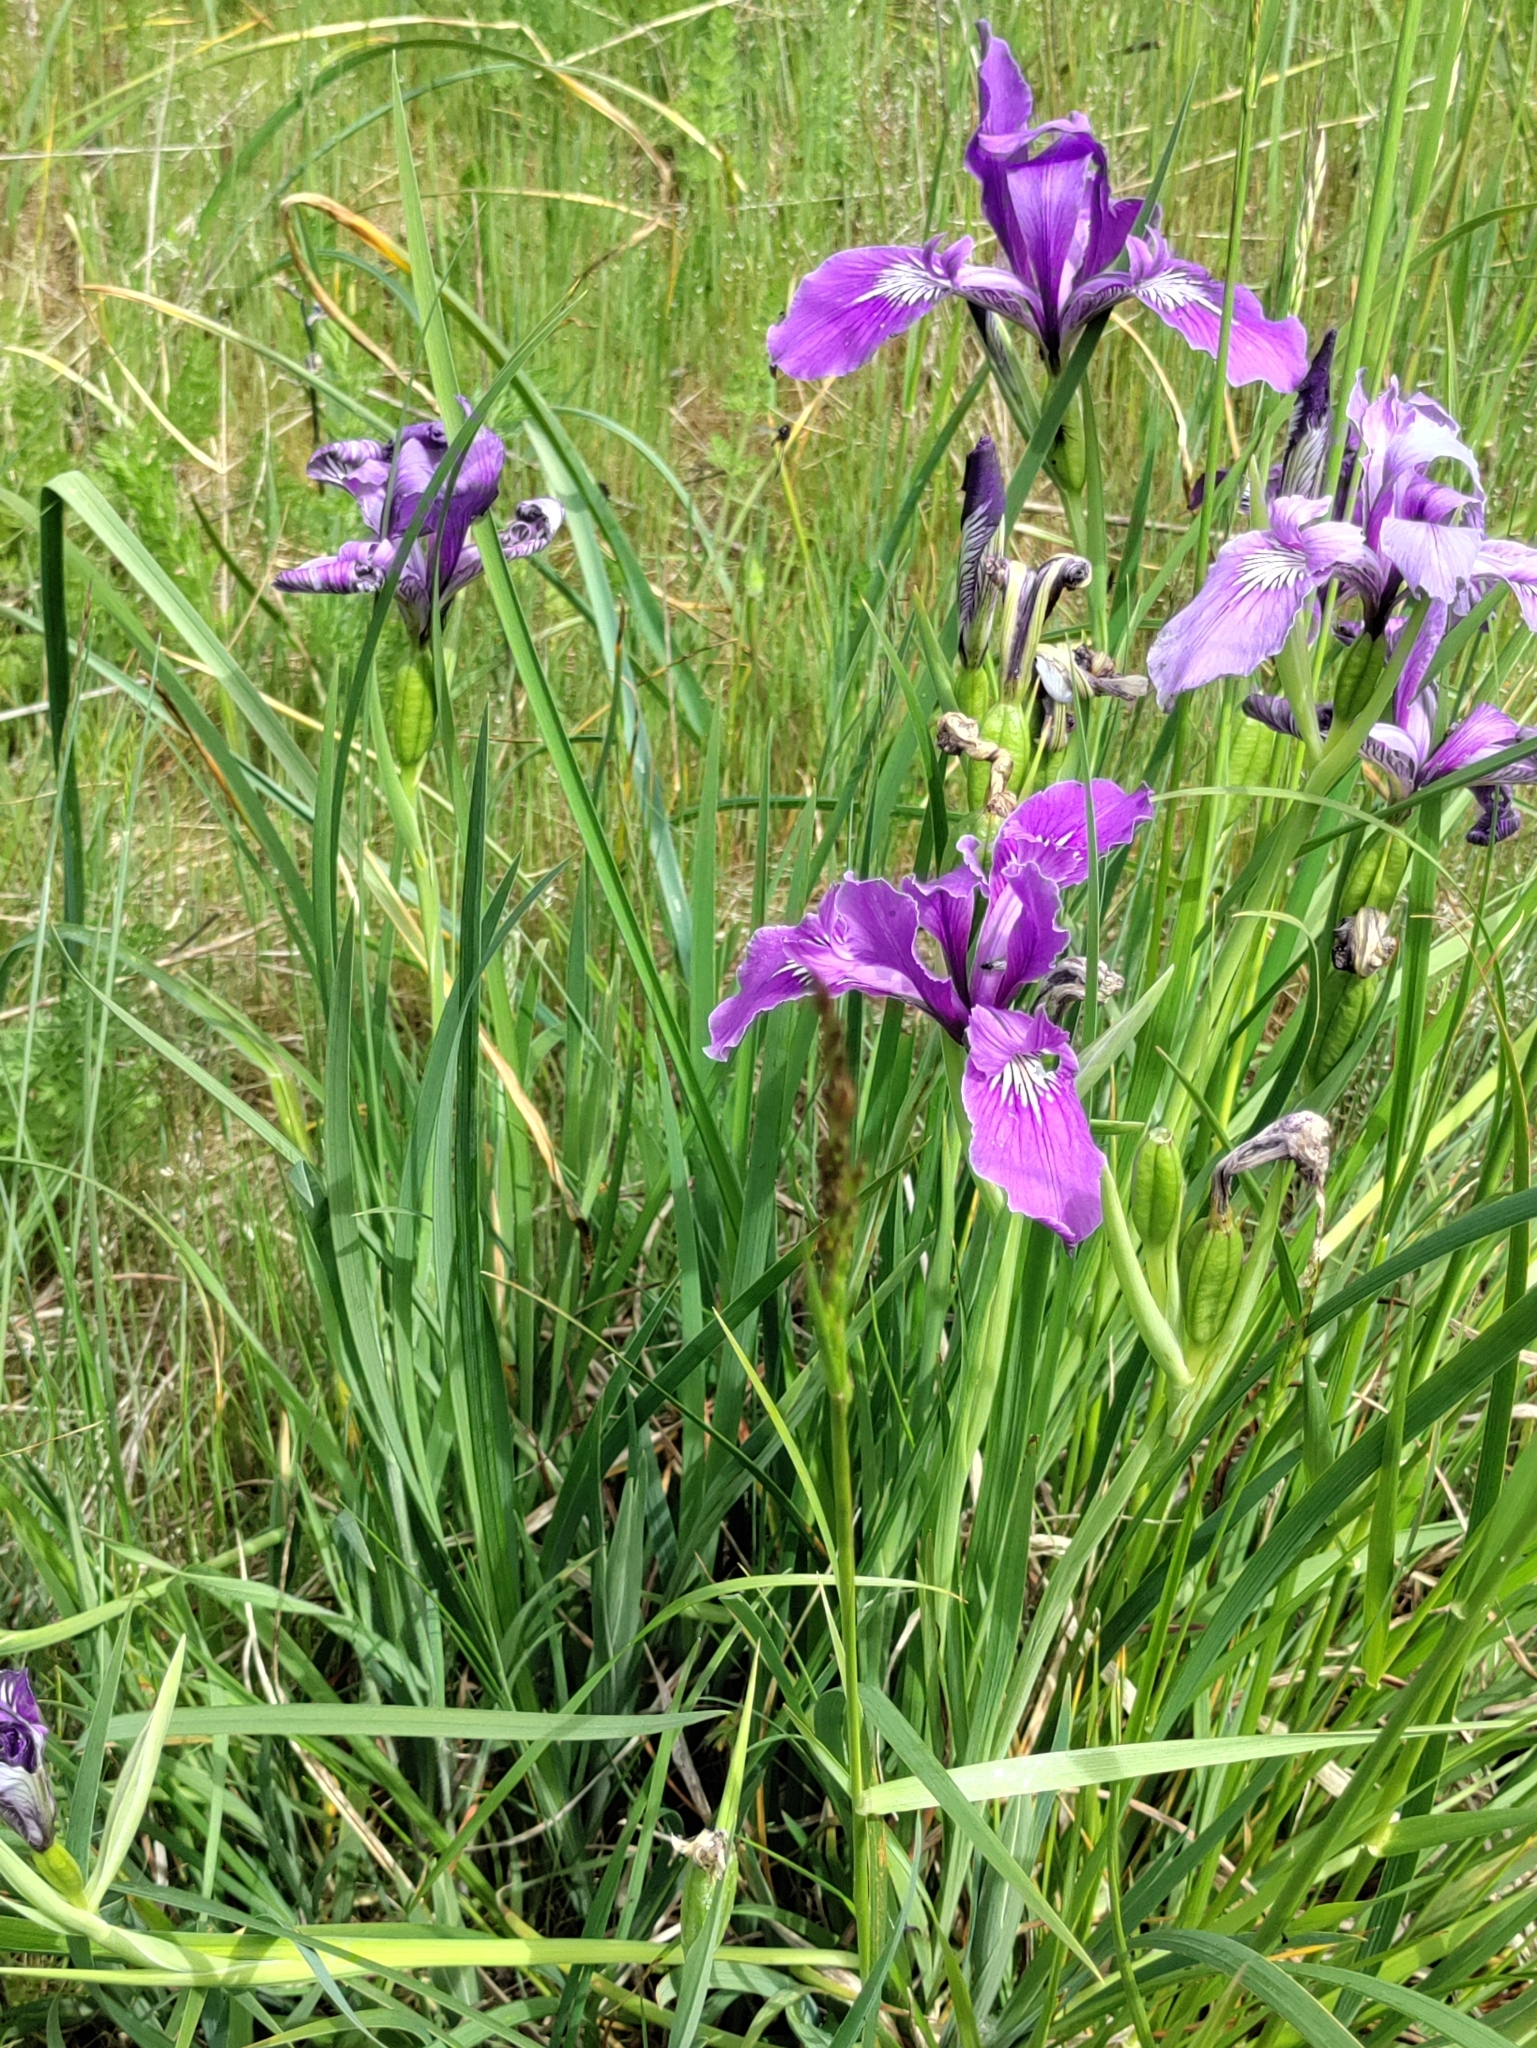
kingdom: Plantae
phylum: Tracheophyta
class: Liliopsida
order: Asparagales
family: Iridaceae
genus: Iris
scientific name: Iris tenax
